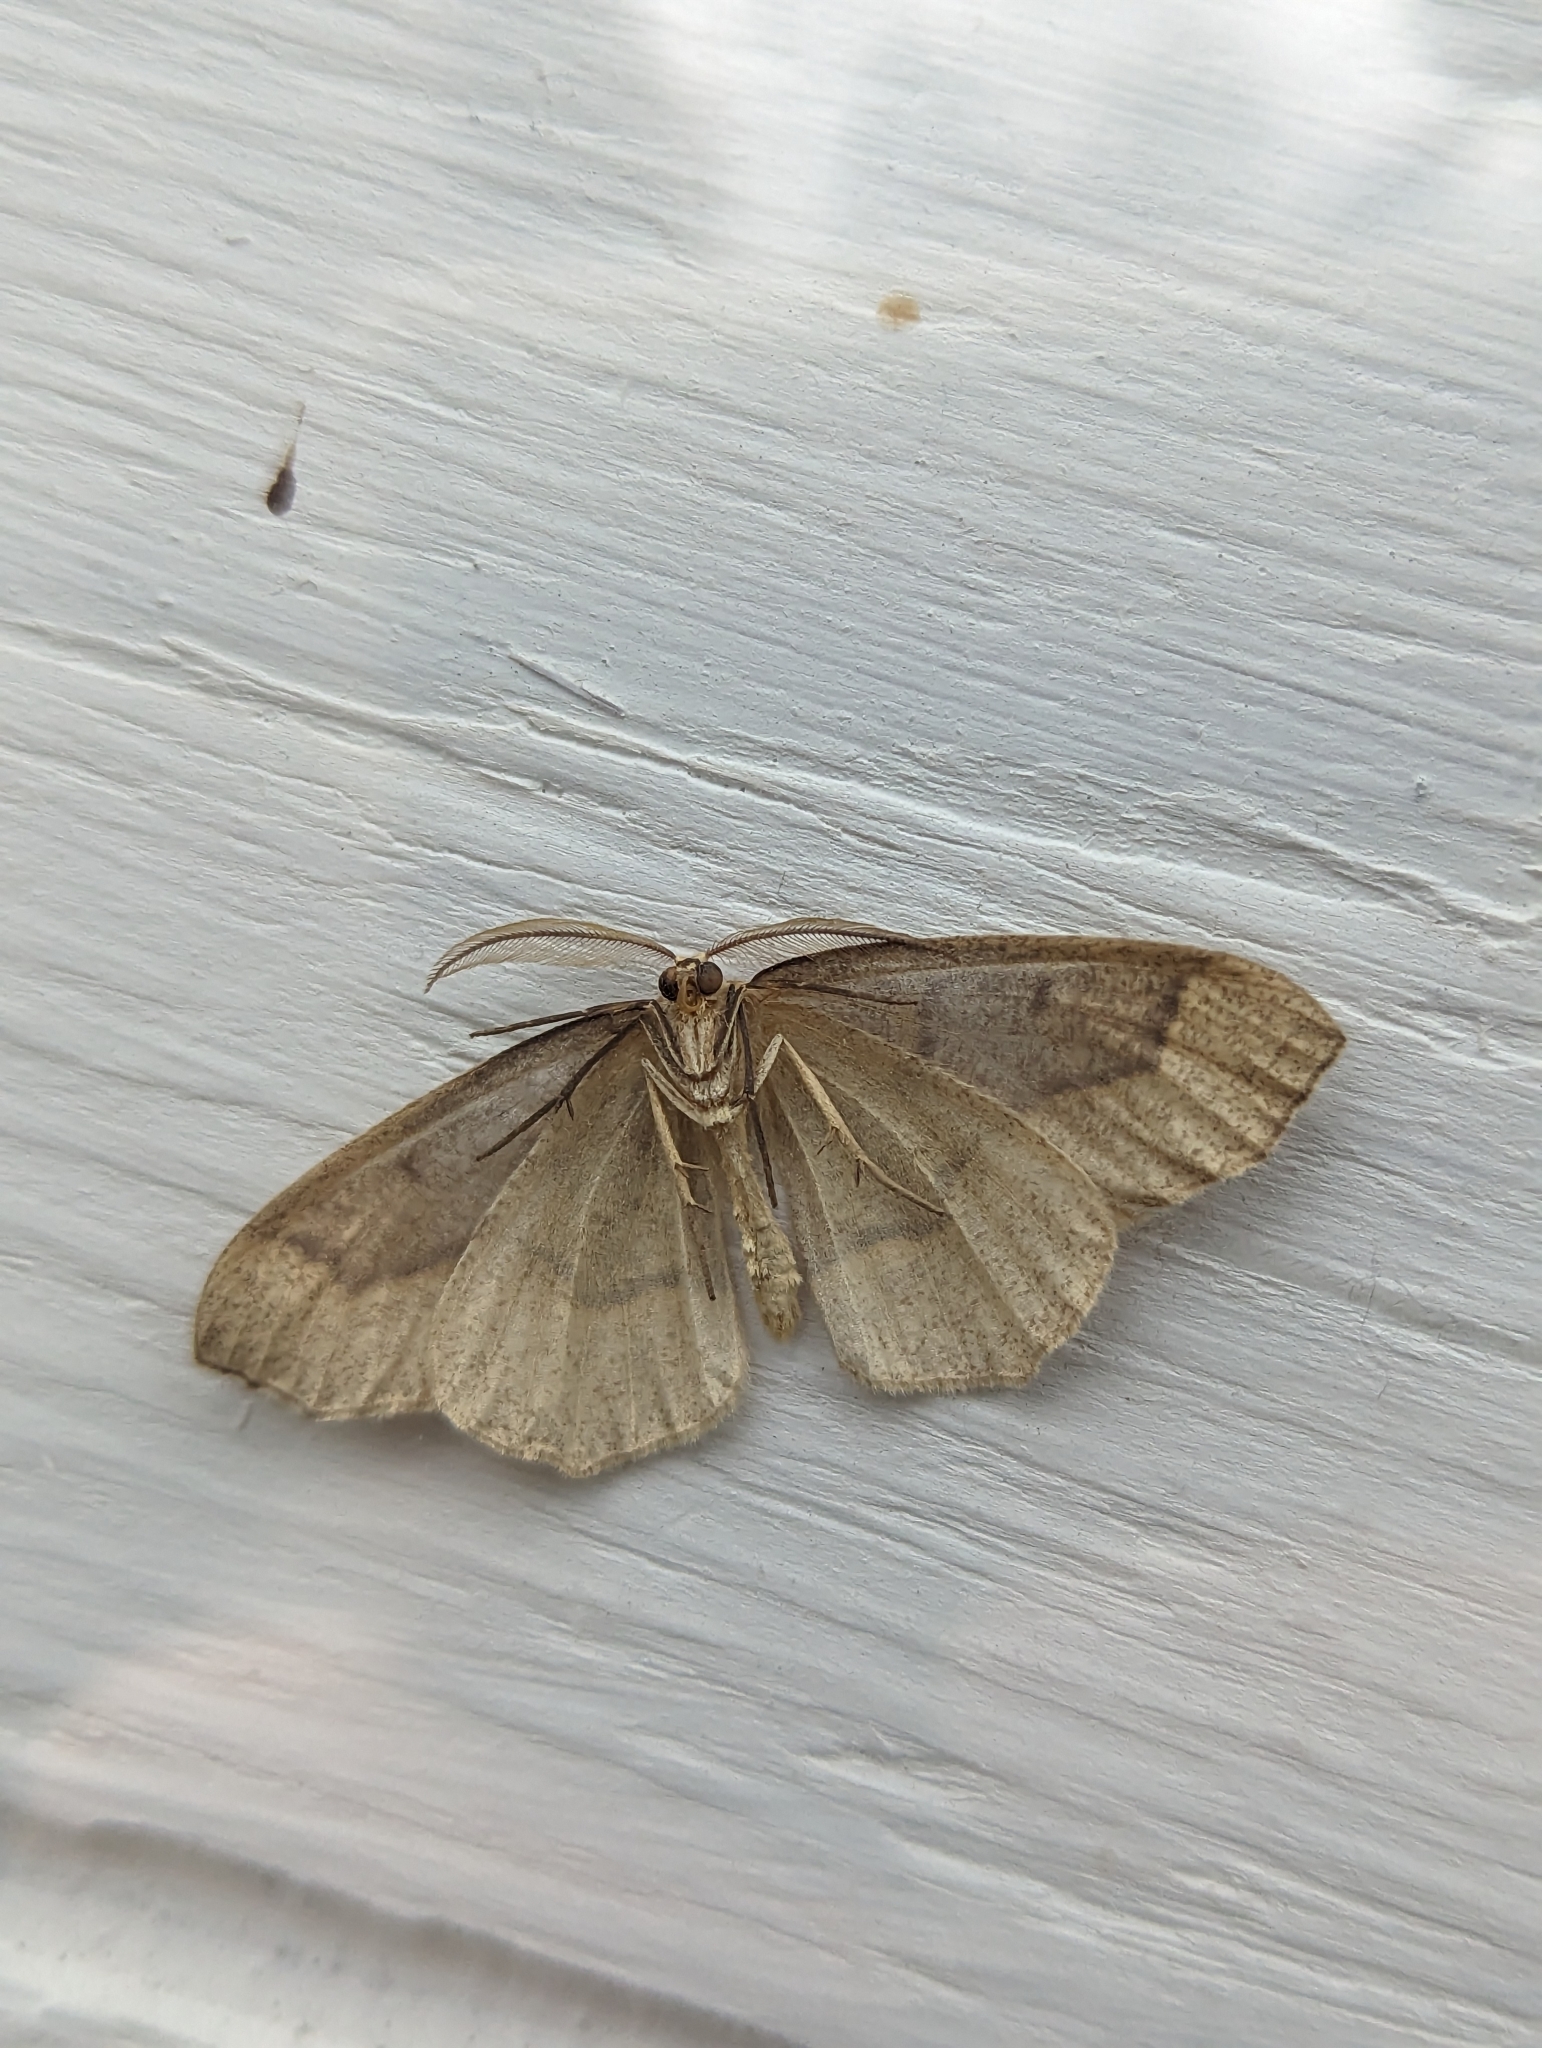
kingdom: Animalia
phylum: Arthropoda
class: Insecta
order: Lepidoptera
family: Geometridae
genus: Lambdina
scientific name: Lambdina fiscellaria
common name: Hemlock looper
